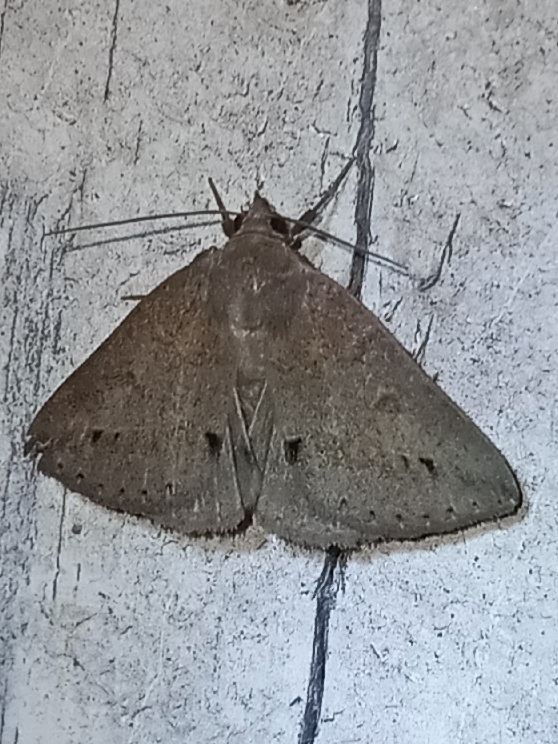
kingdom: Animalia
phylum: Arthropoda
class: Insecta
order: Lepidoptera
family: Erebidae
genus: Argyrostrotis
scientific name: Argyrostrotis flavistriaria
